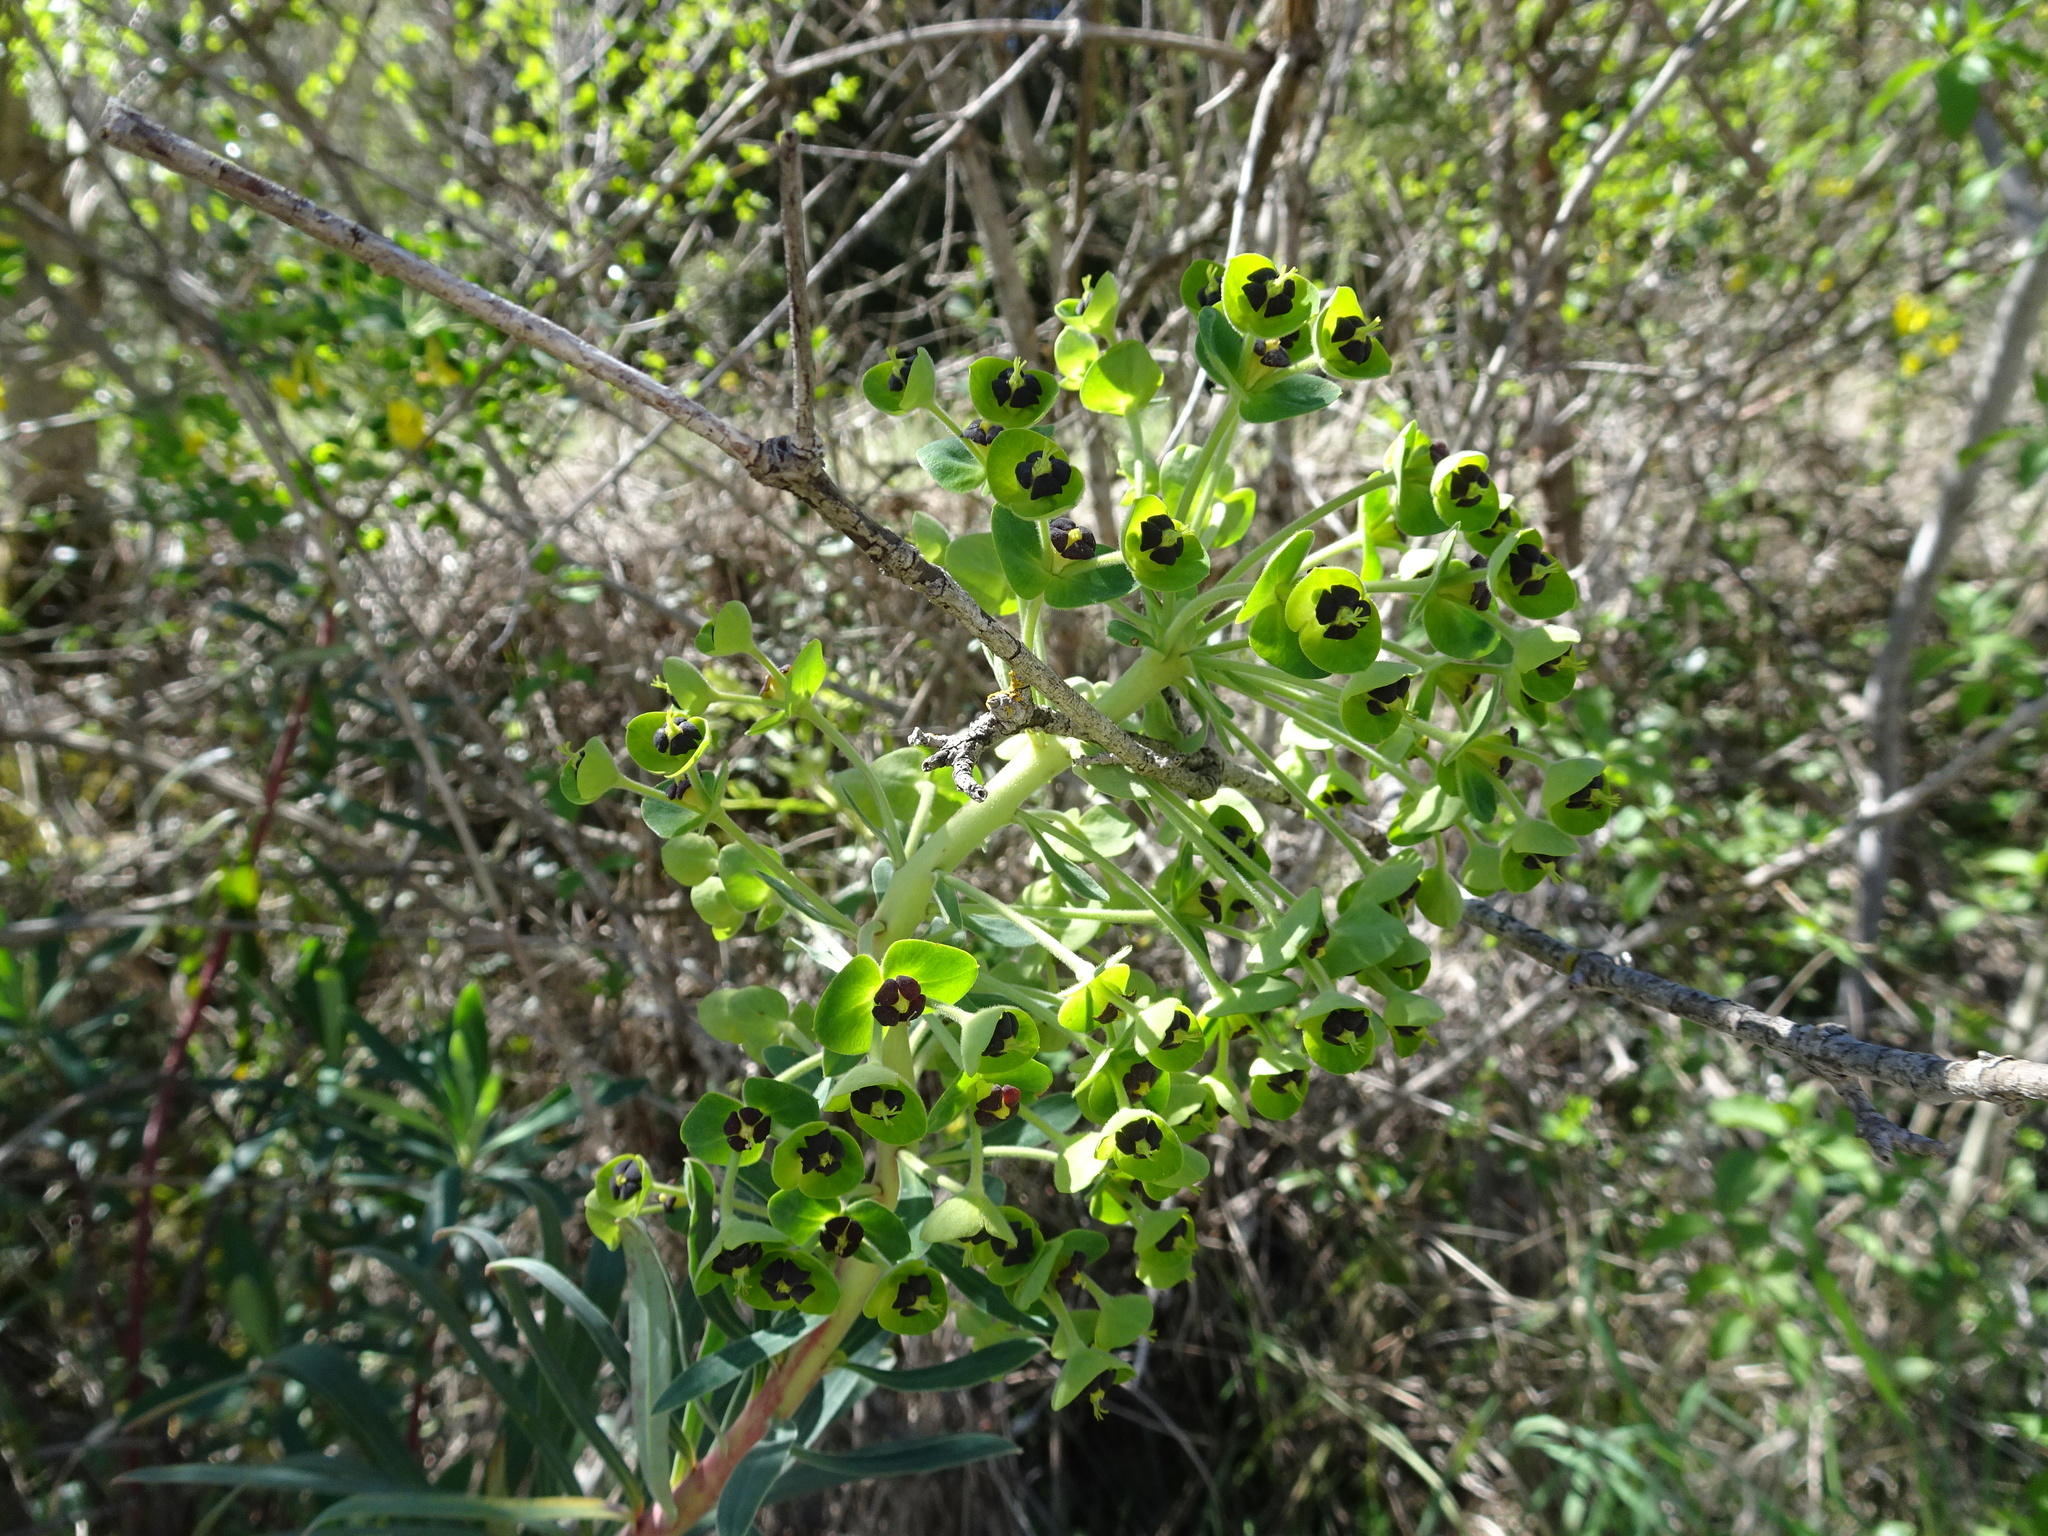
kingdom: Plantae
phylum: Tracheophyta
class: Magnoliopsida
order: Malpighiales
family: Euphorbiaceae
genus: Euphorbia
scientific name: Euphorbia characias
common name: Mediterranean spurge
